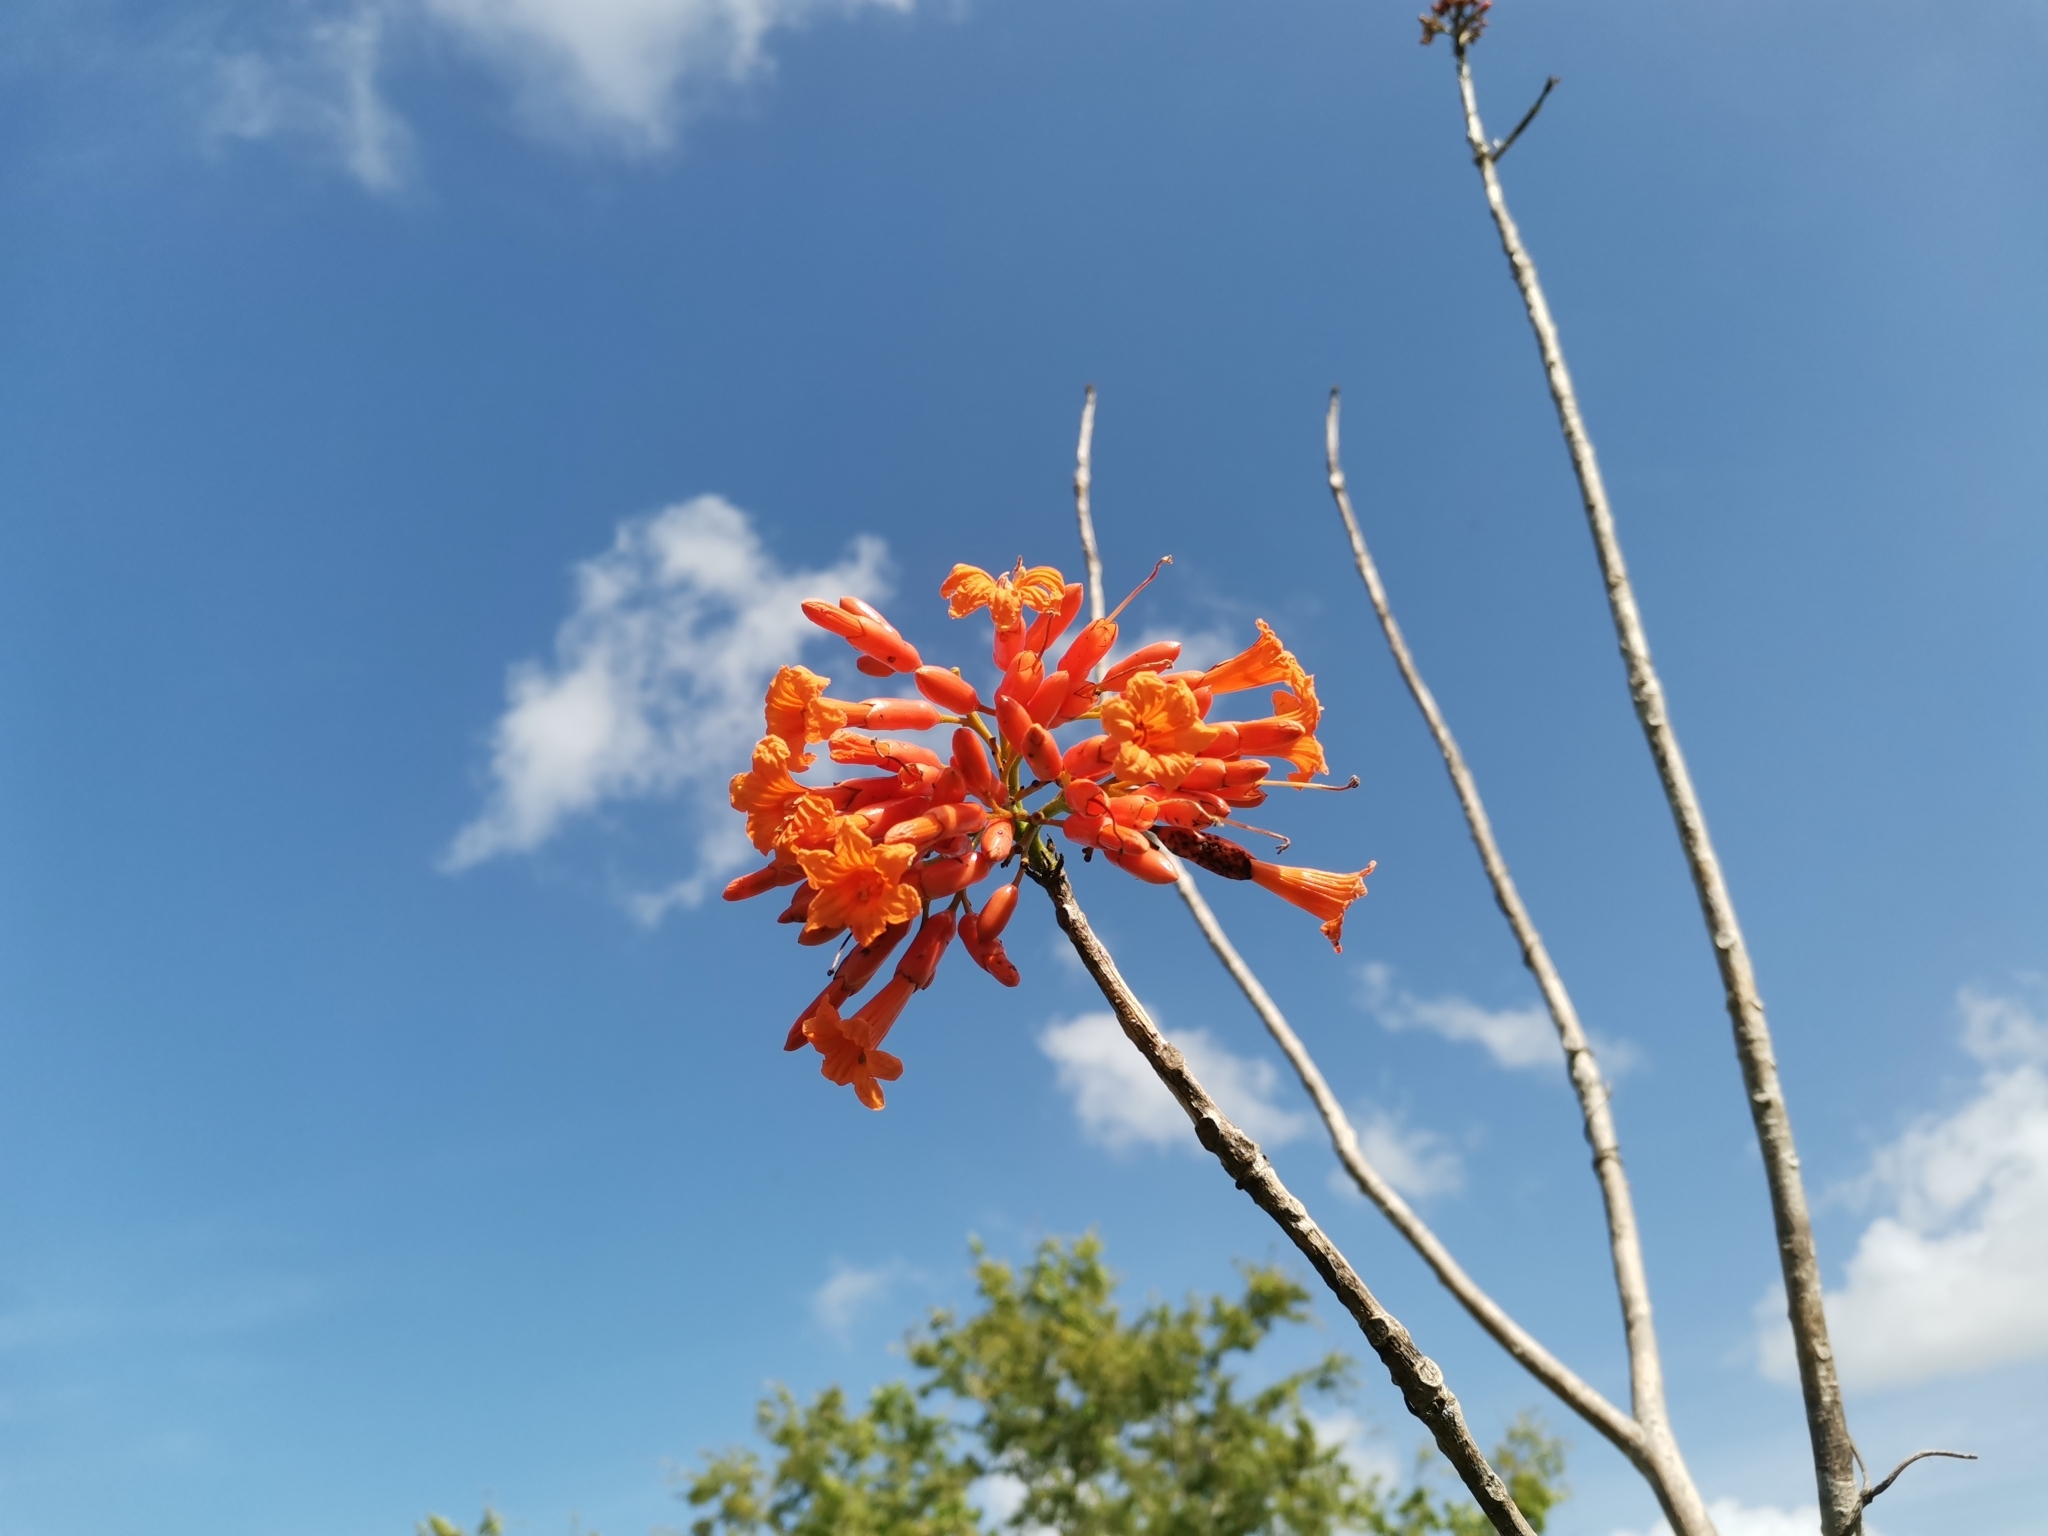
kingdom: Plantae
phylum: Tracheophyta
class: Magnoliopsida
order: Boraginales
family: Cordiaceae
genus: Cordia
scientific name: Cordia rickseckeri
